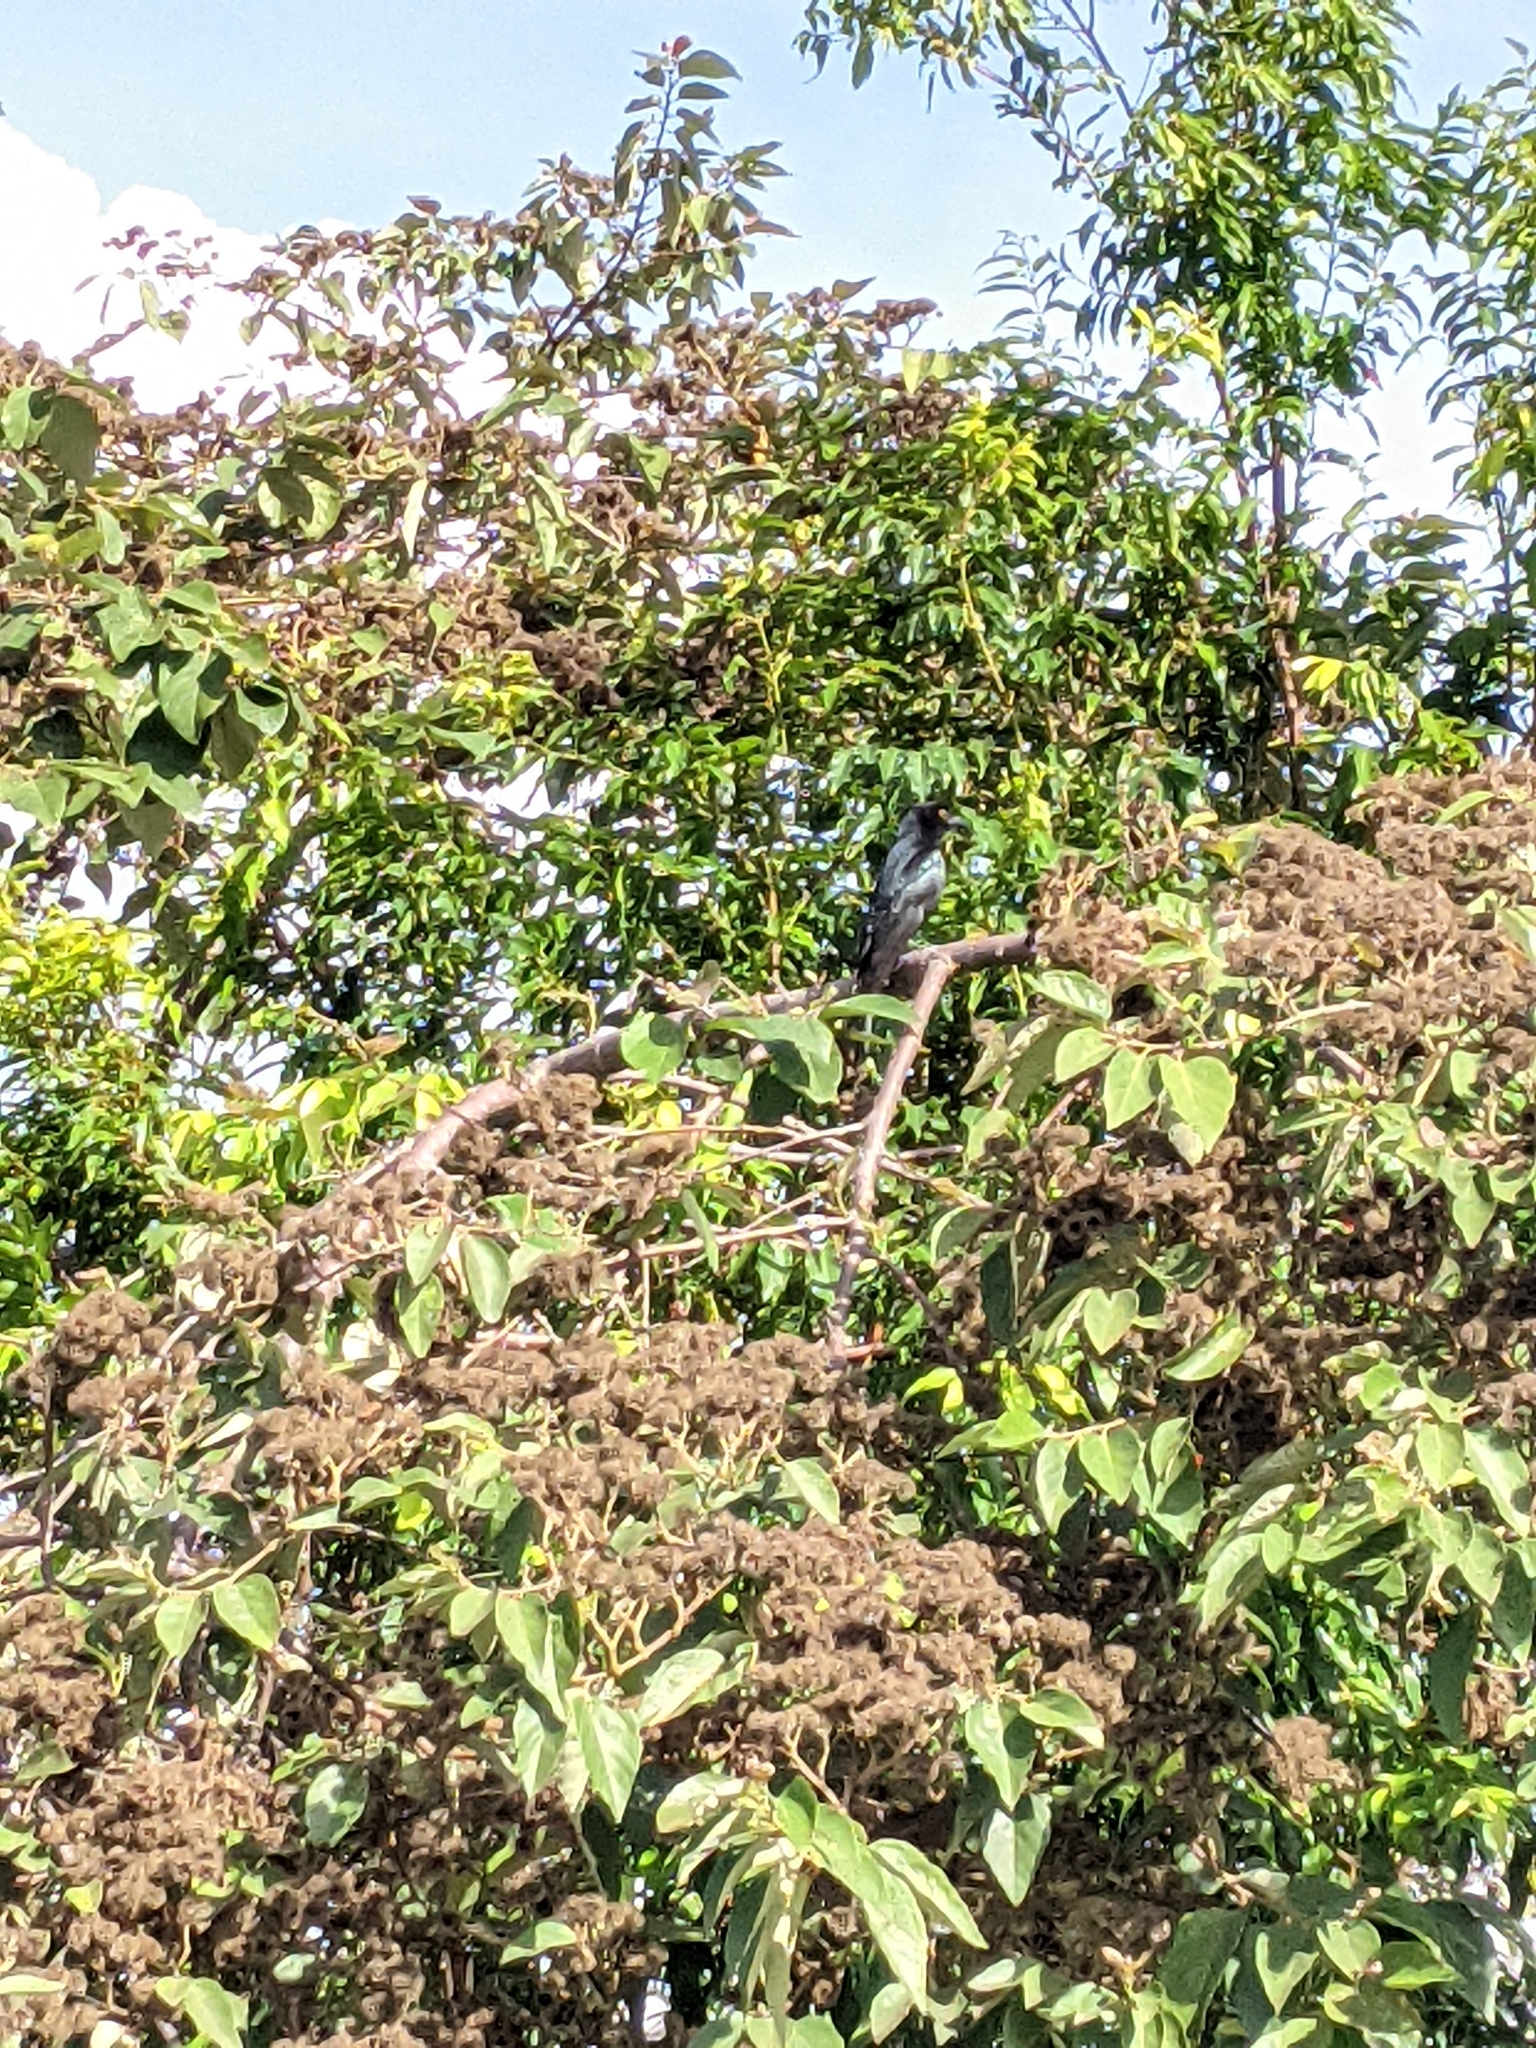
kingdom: Animalia
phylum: Chordata
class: Aves
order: Passeriformes
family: Dicruridae
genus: Dicrurus
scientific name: Dicrurus bracteatus
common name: Spangled drongo
